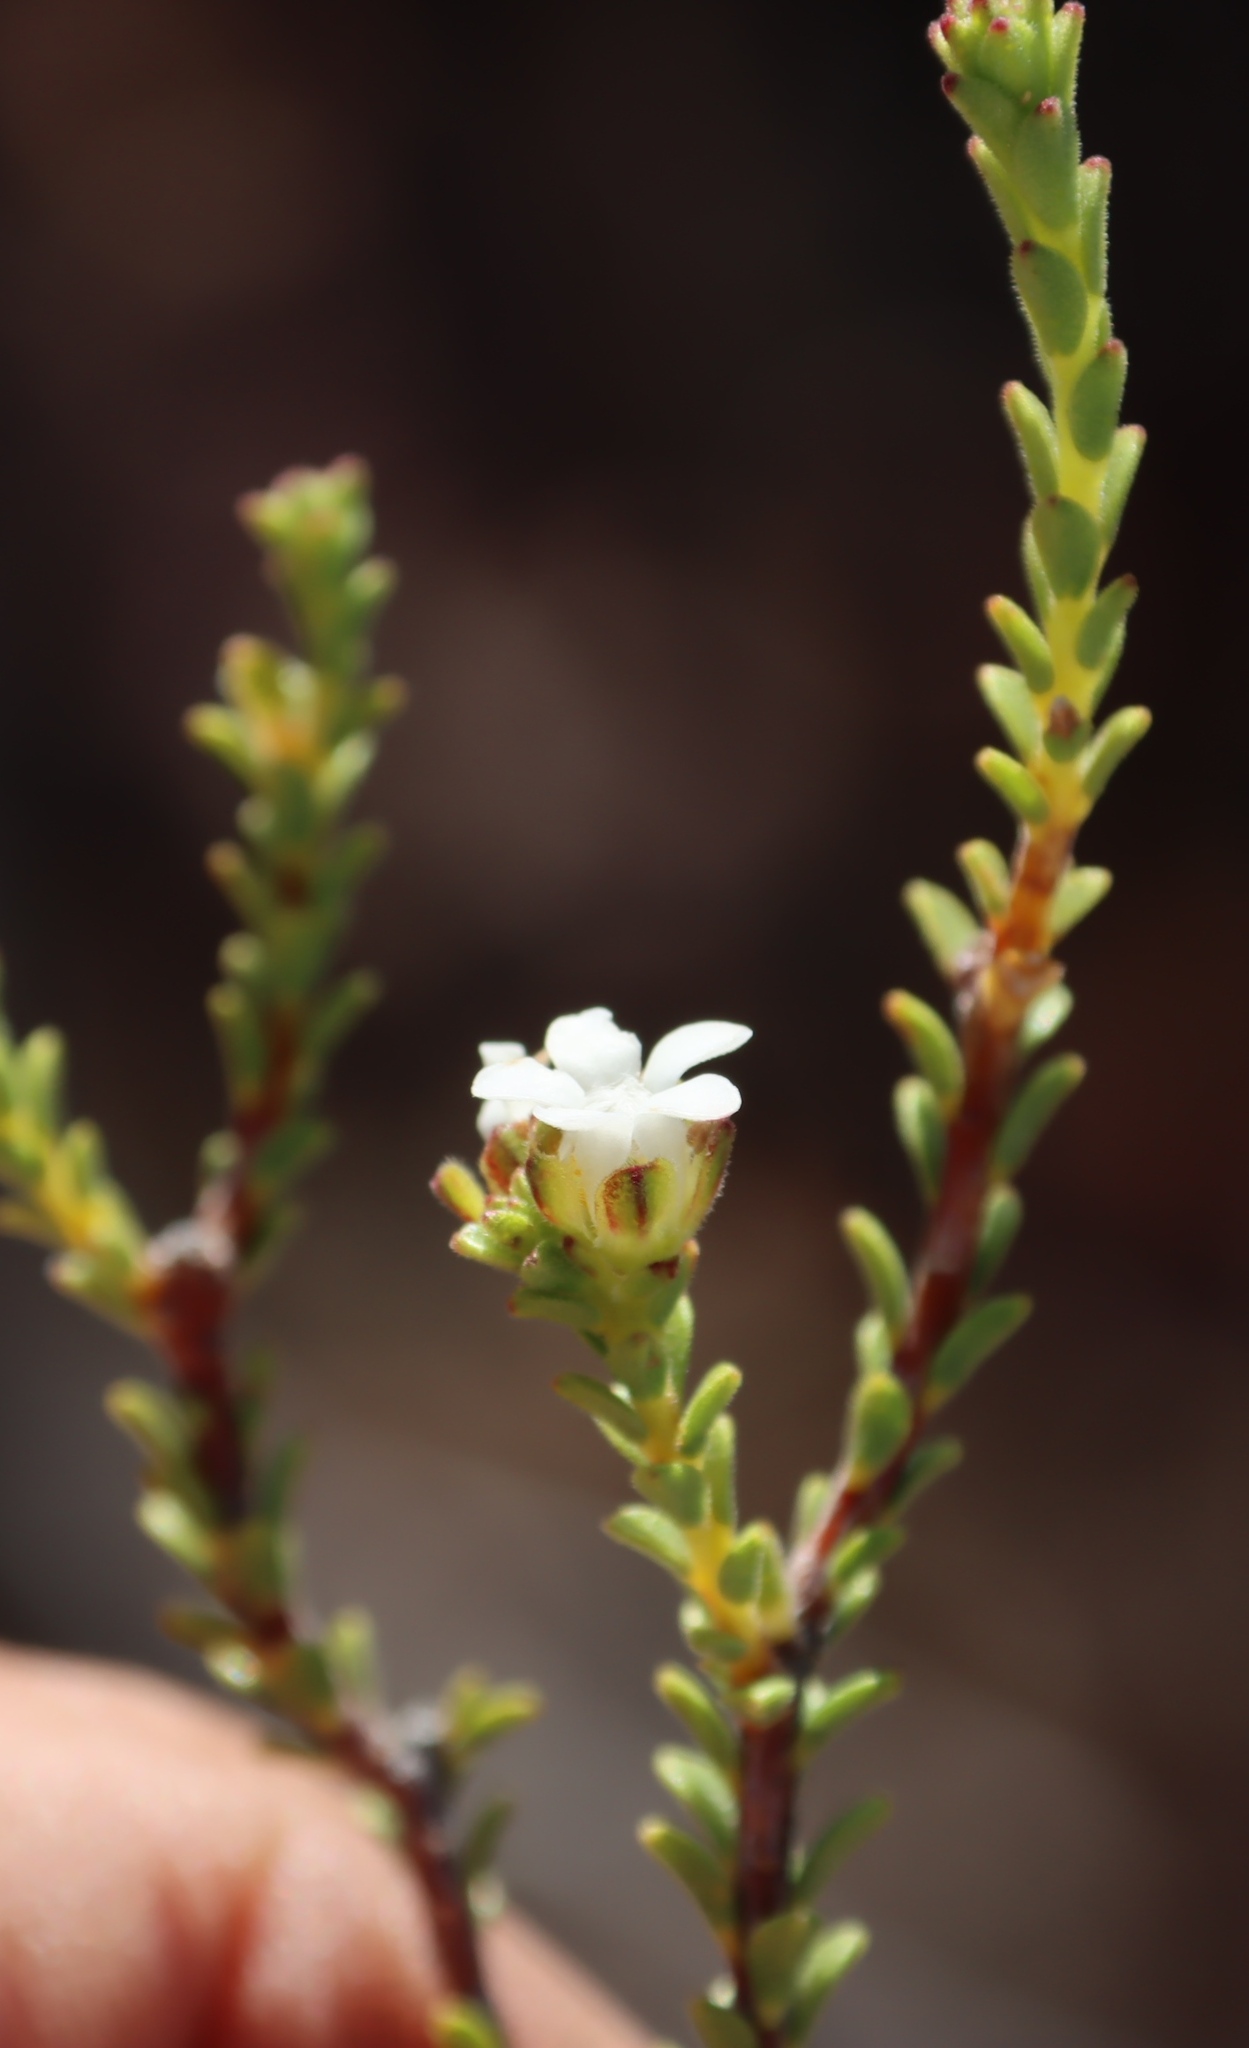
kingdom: Plantae
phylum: Tracheophyta
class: Magnoliopsida
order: Sapindales
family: Rutaceae
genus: Euchaetis
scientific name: Euchaetis vallis-simiae
